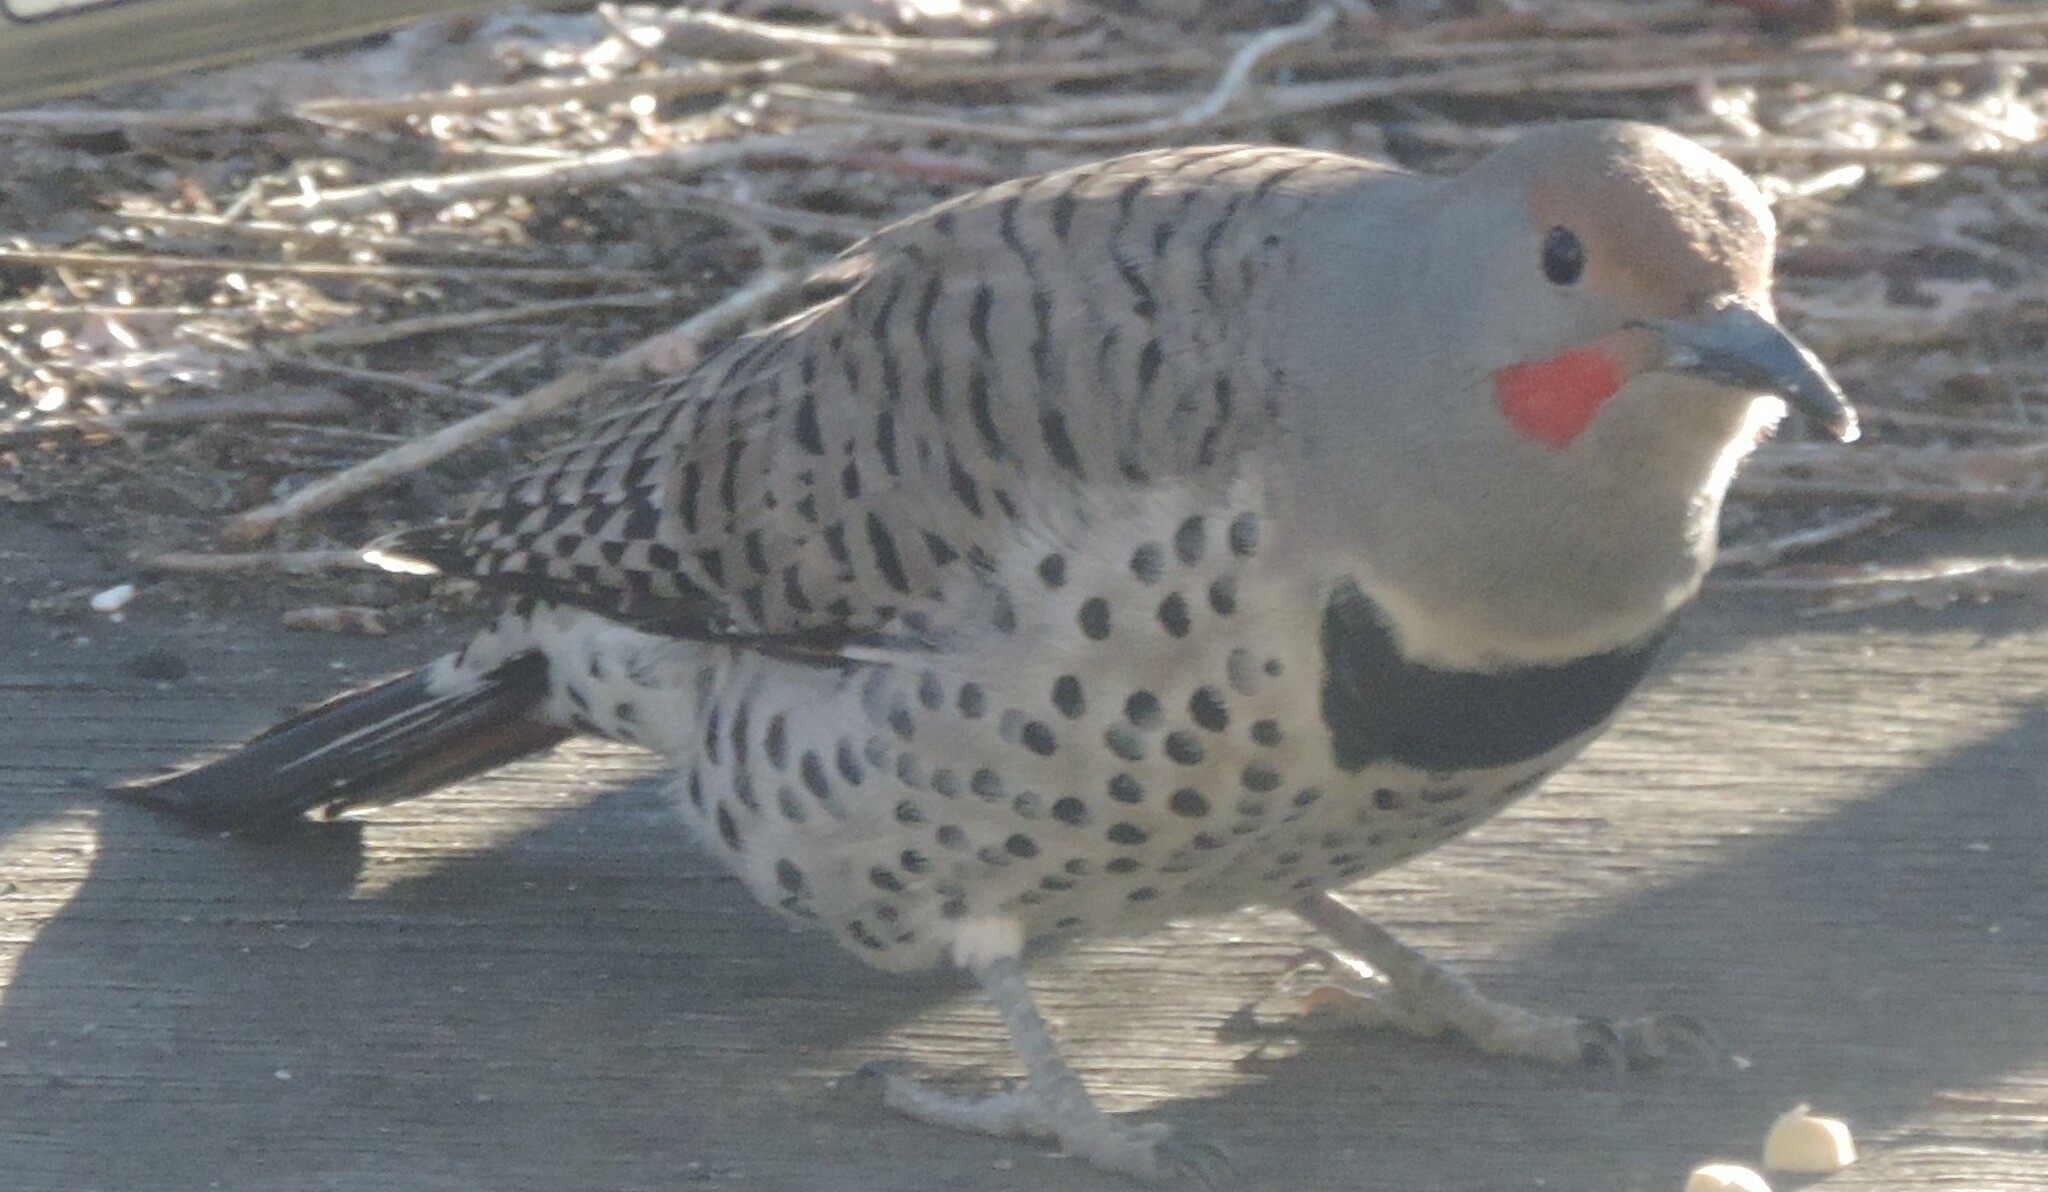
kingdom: Animalia
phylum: Chordata
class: Aves
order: Piciformes
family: Picidae
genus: Colaptes
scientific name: Colaptes
